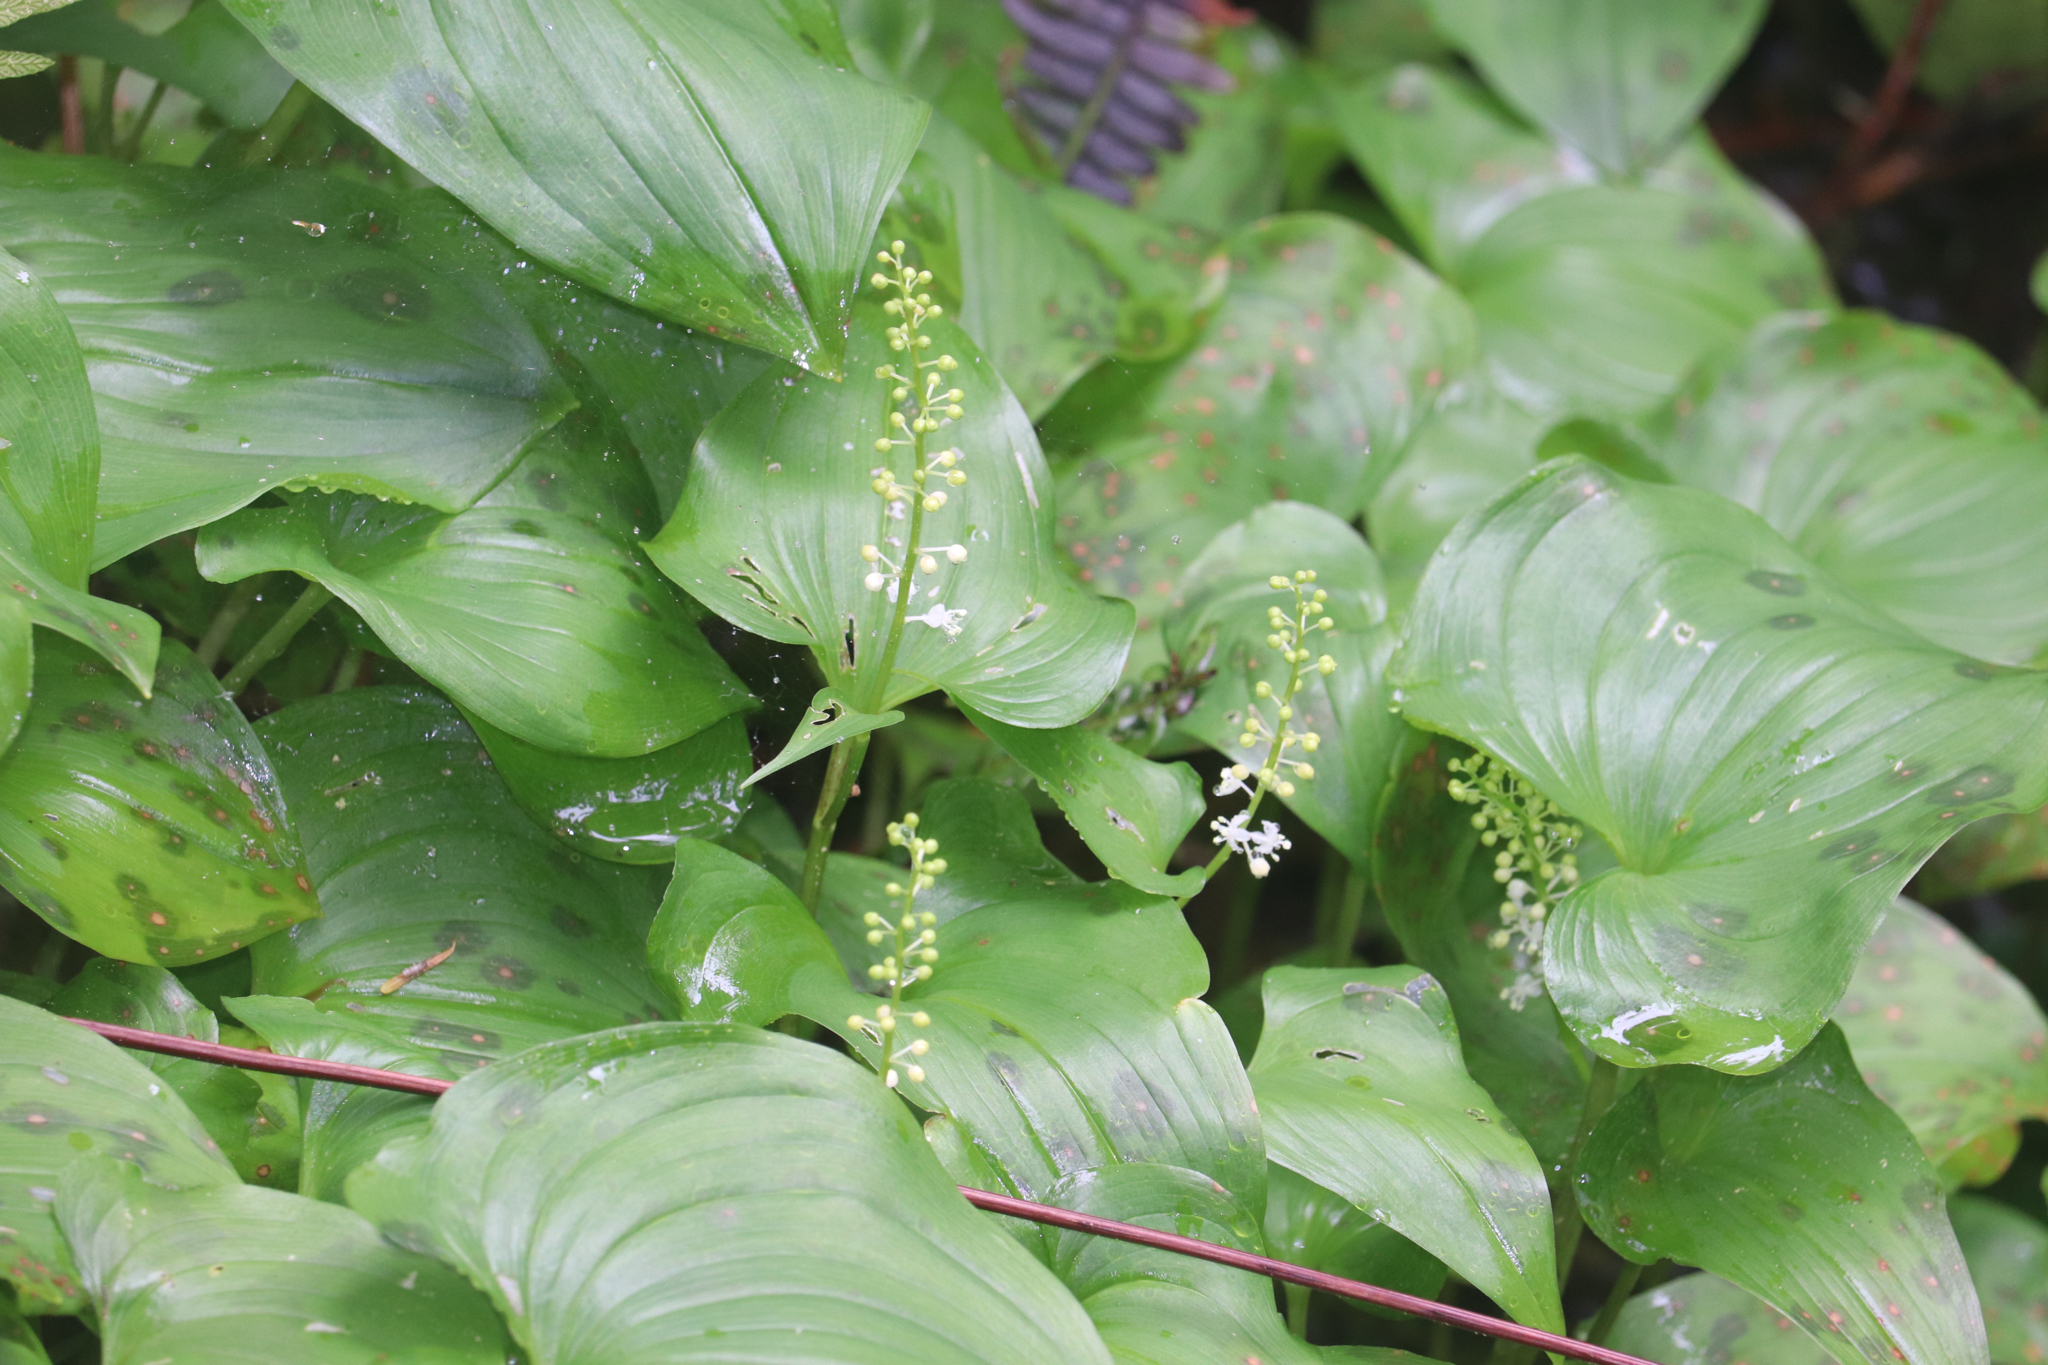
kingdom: Plantae
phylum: Tracheophyta
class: Liliopsida
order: Asparagales
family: Asparagaceae
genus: Maianthemum
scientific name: Maianthemum dilatatum
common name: False lily-of-the-valley
